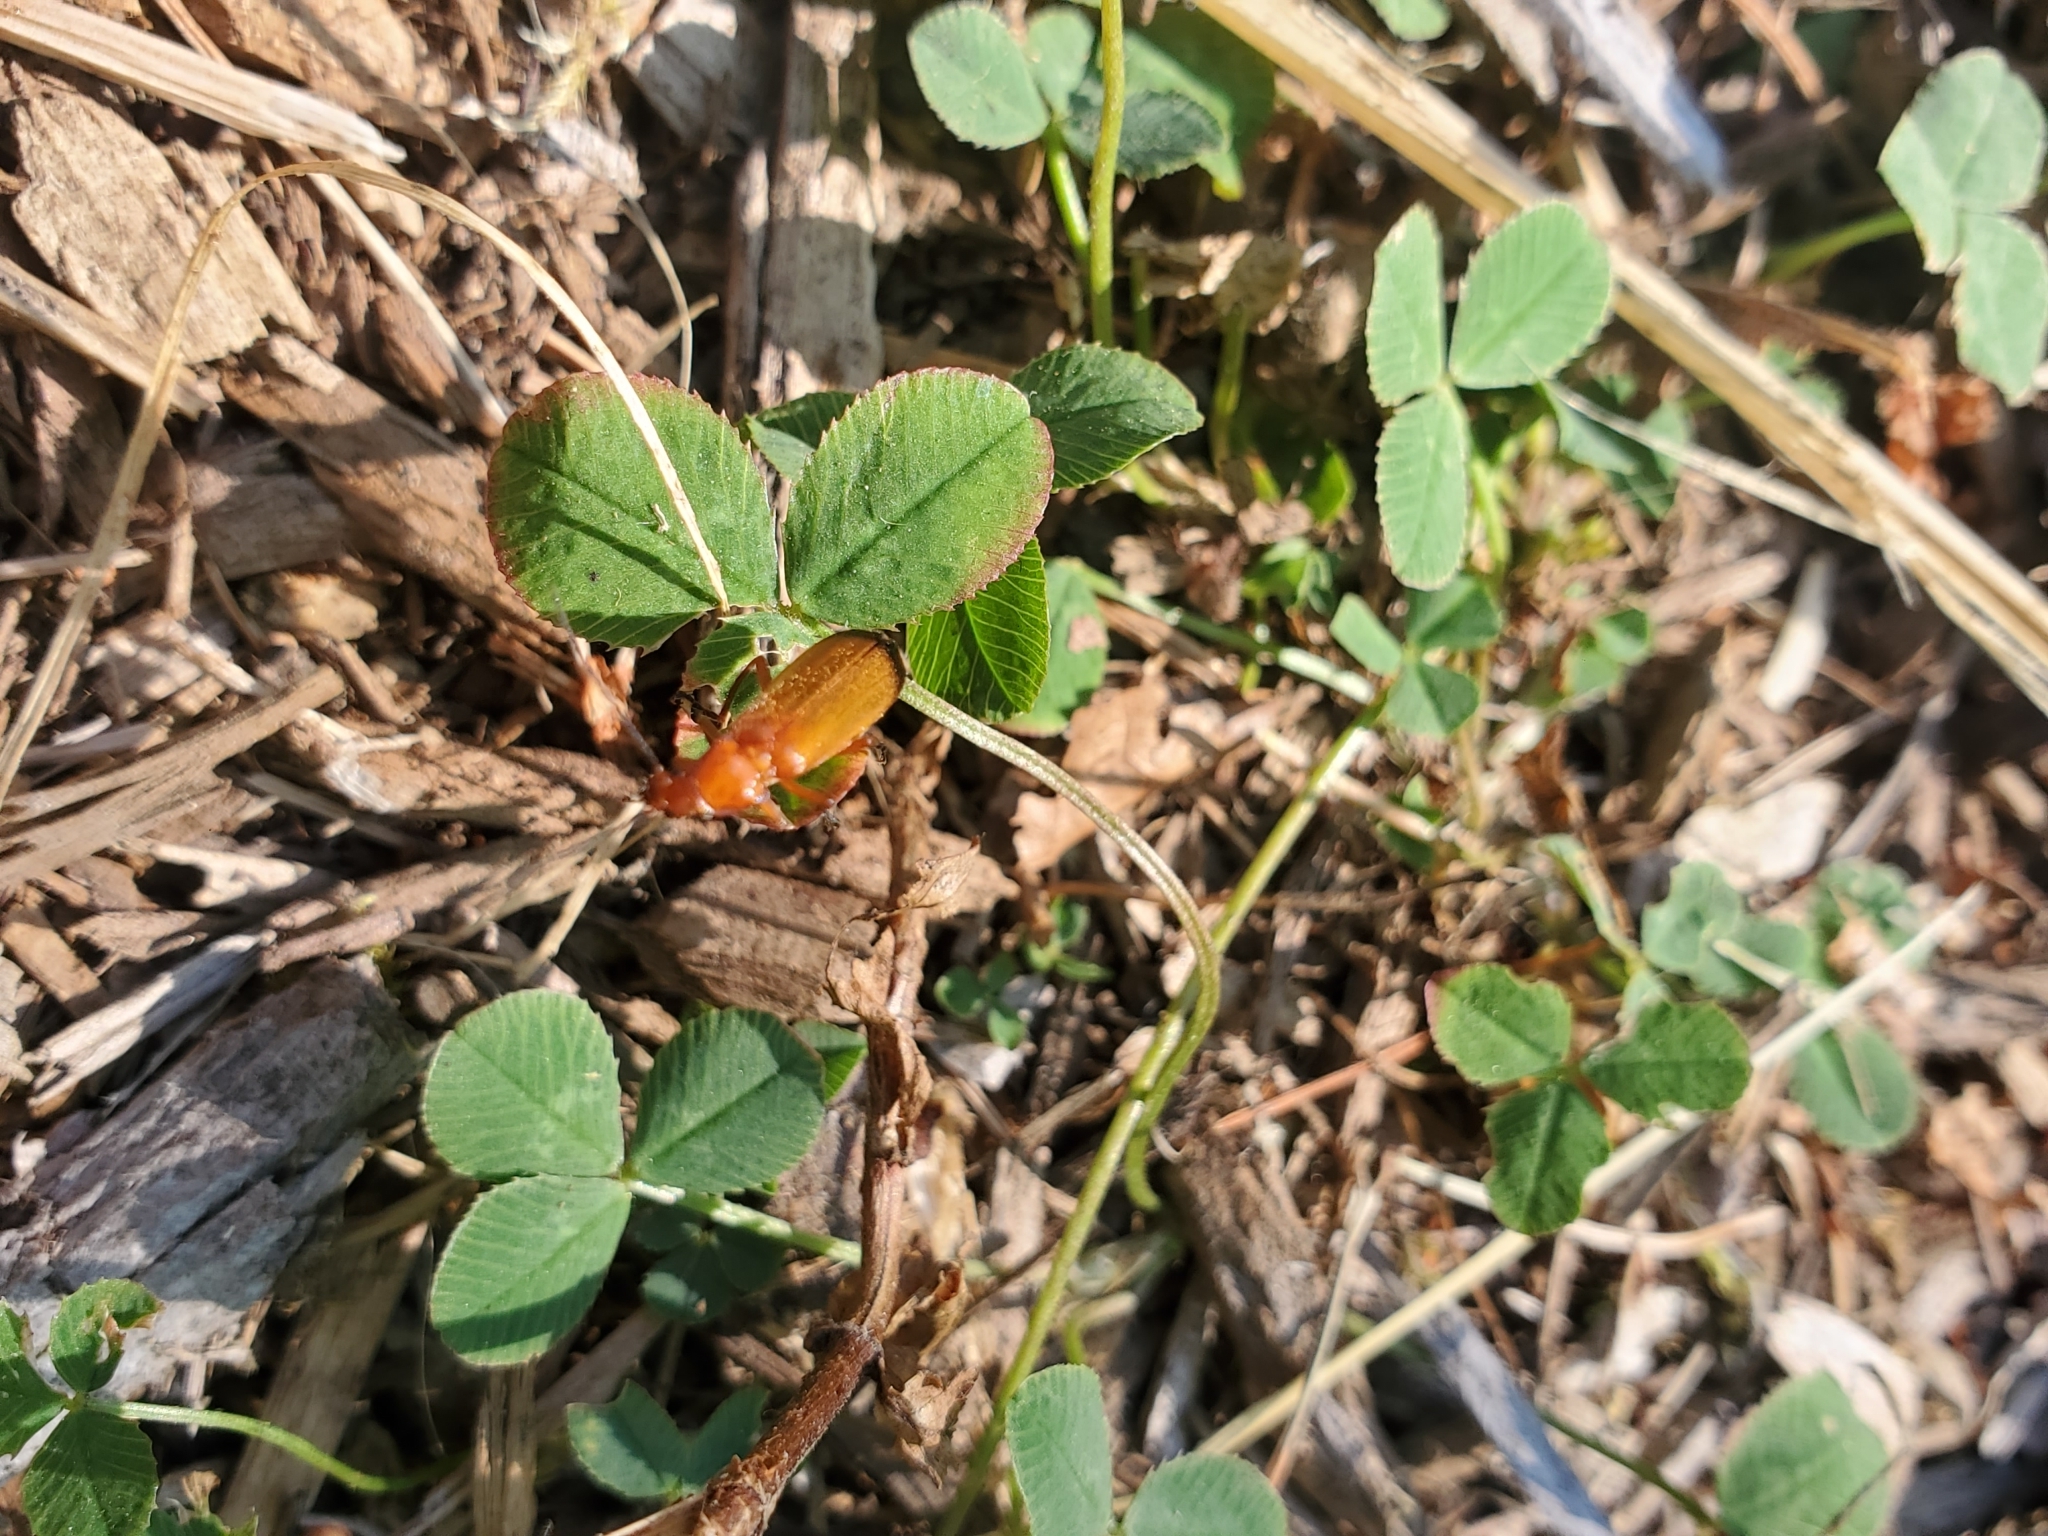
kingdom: Animalia
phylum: Arthropoda
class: Insecta
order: Coleoptera
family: Cantharidae
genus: Rhagonycha
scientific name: Rhagonycha fulva
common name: Common red soldier beetle
